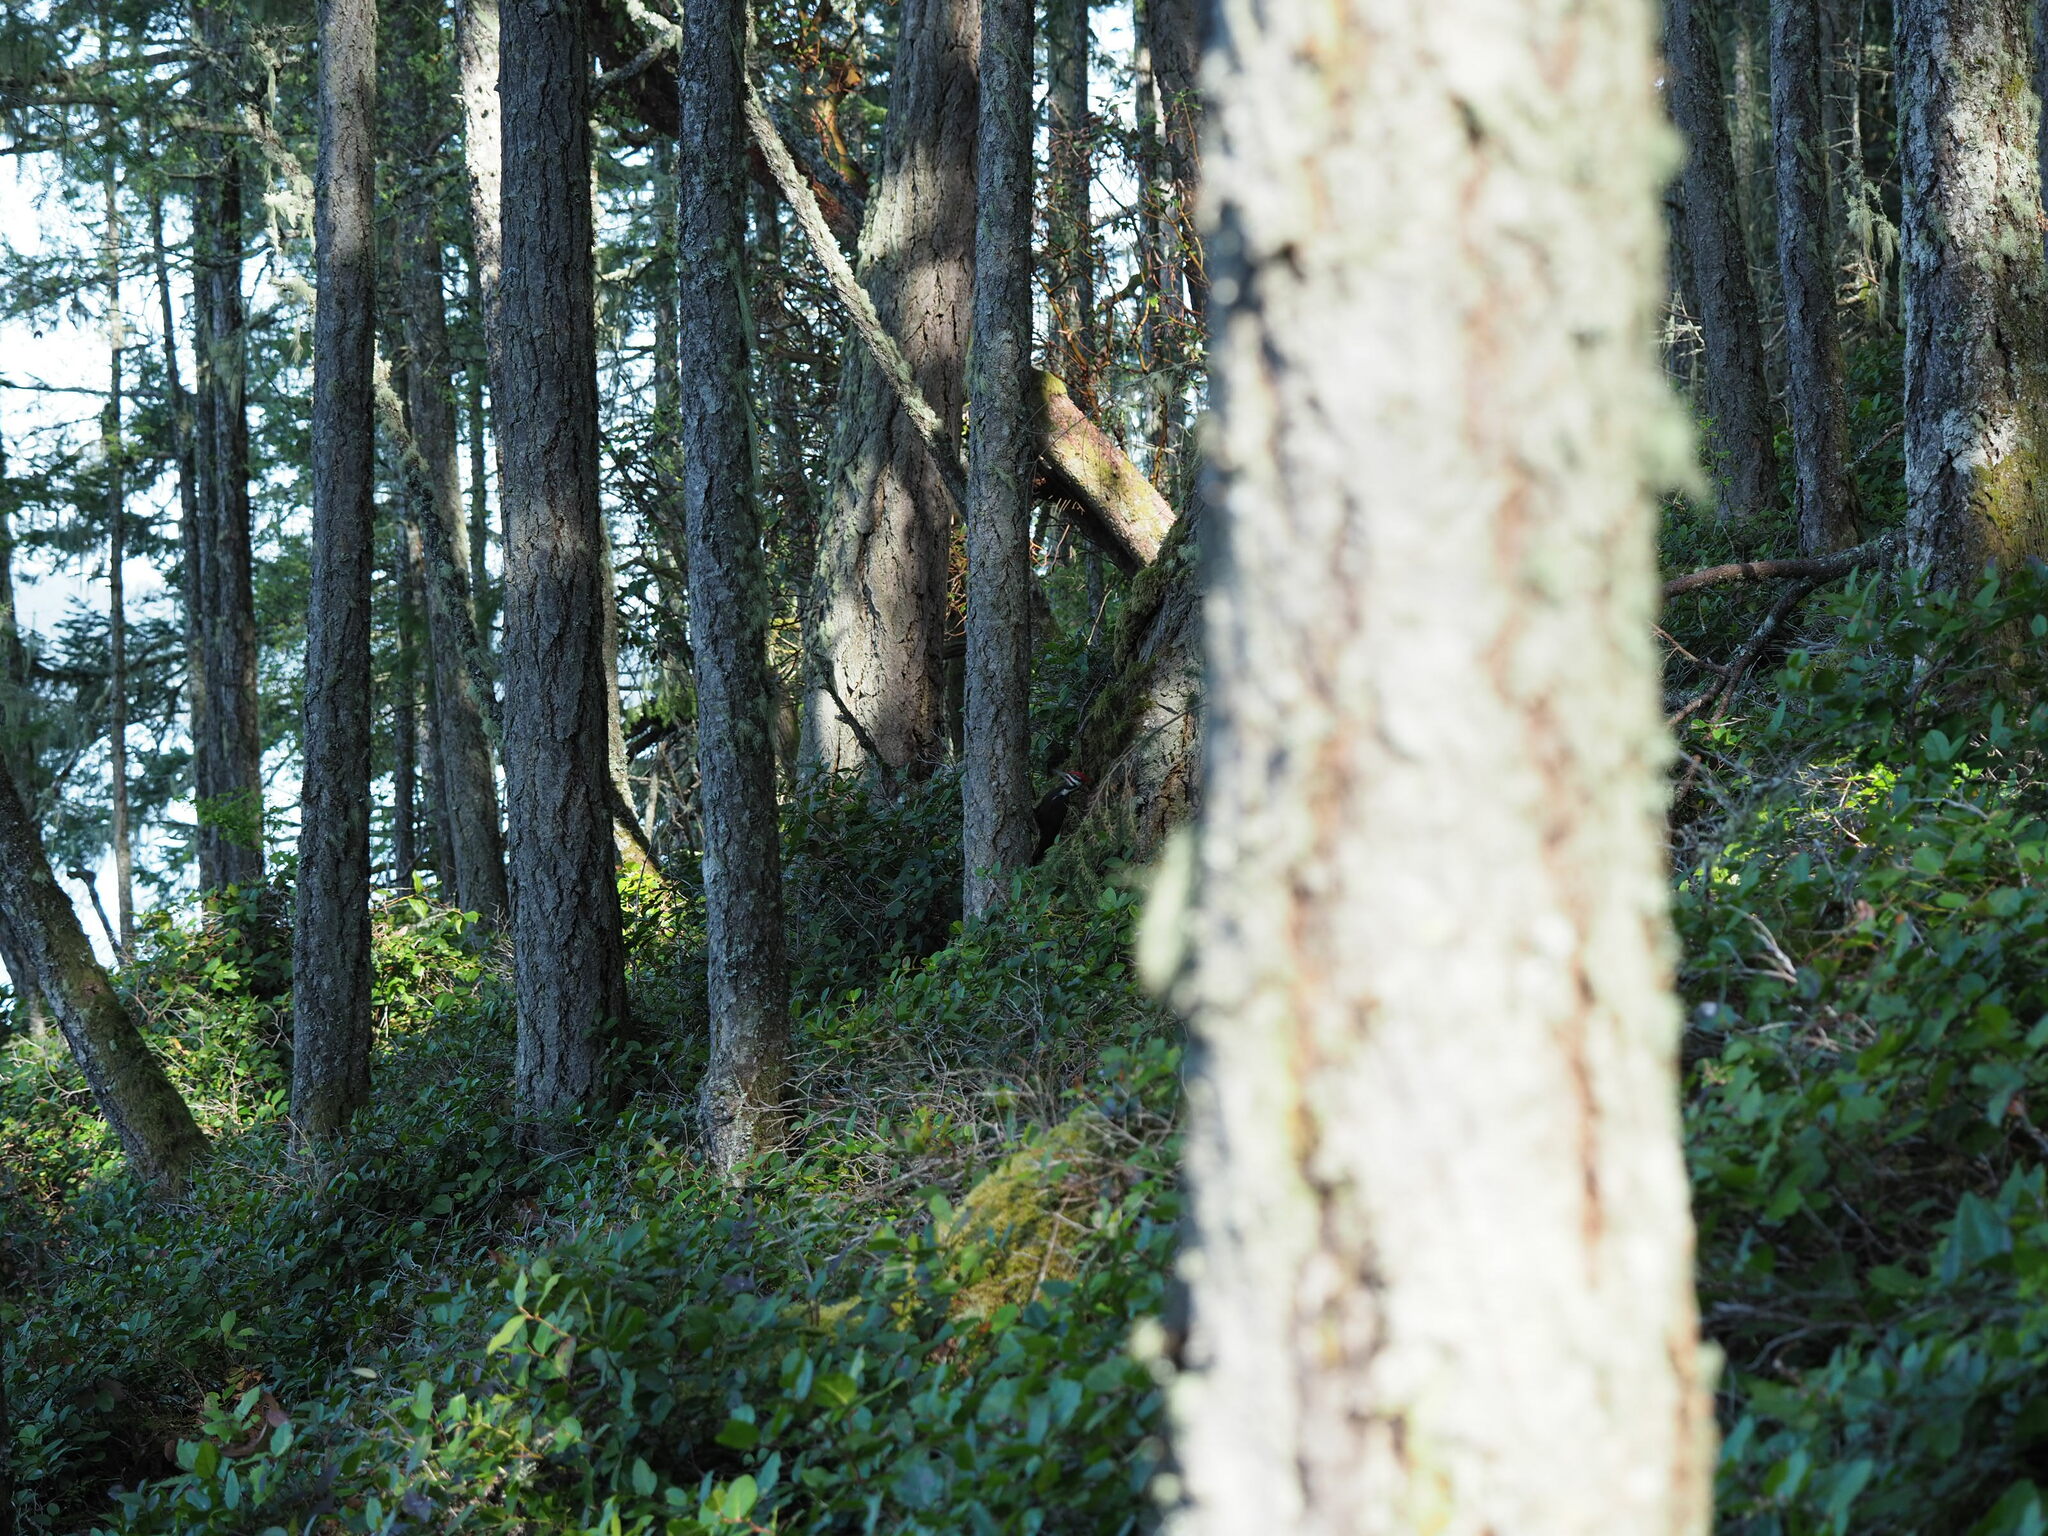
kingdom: Animalia
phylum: Chordata
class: Aves
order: Piciformes
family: Picidae
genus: Dryocopus
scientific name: Dryocopus pileatus
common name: Pileated woodpecker
